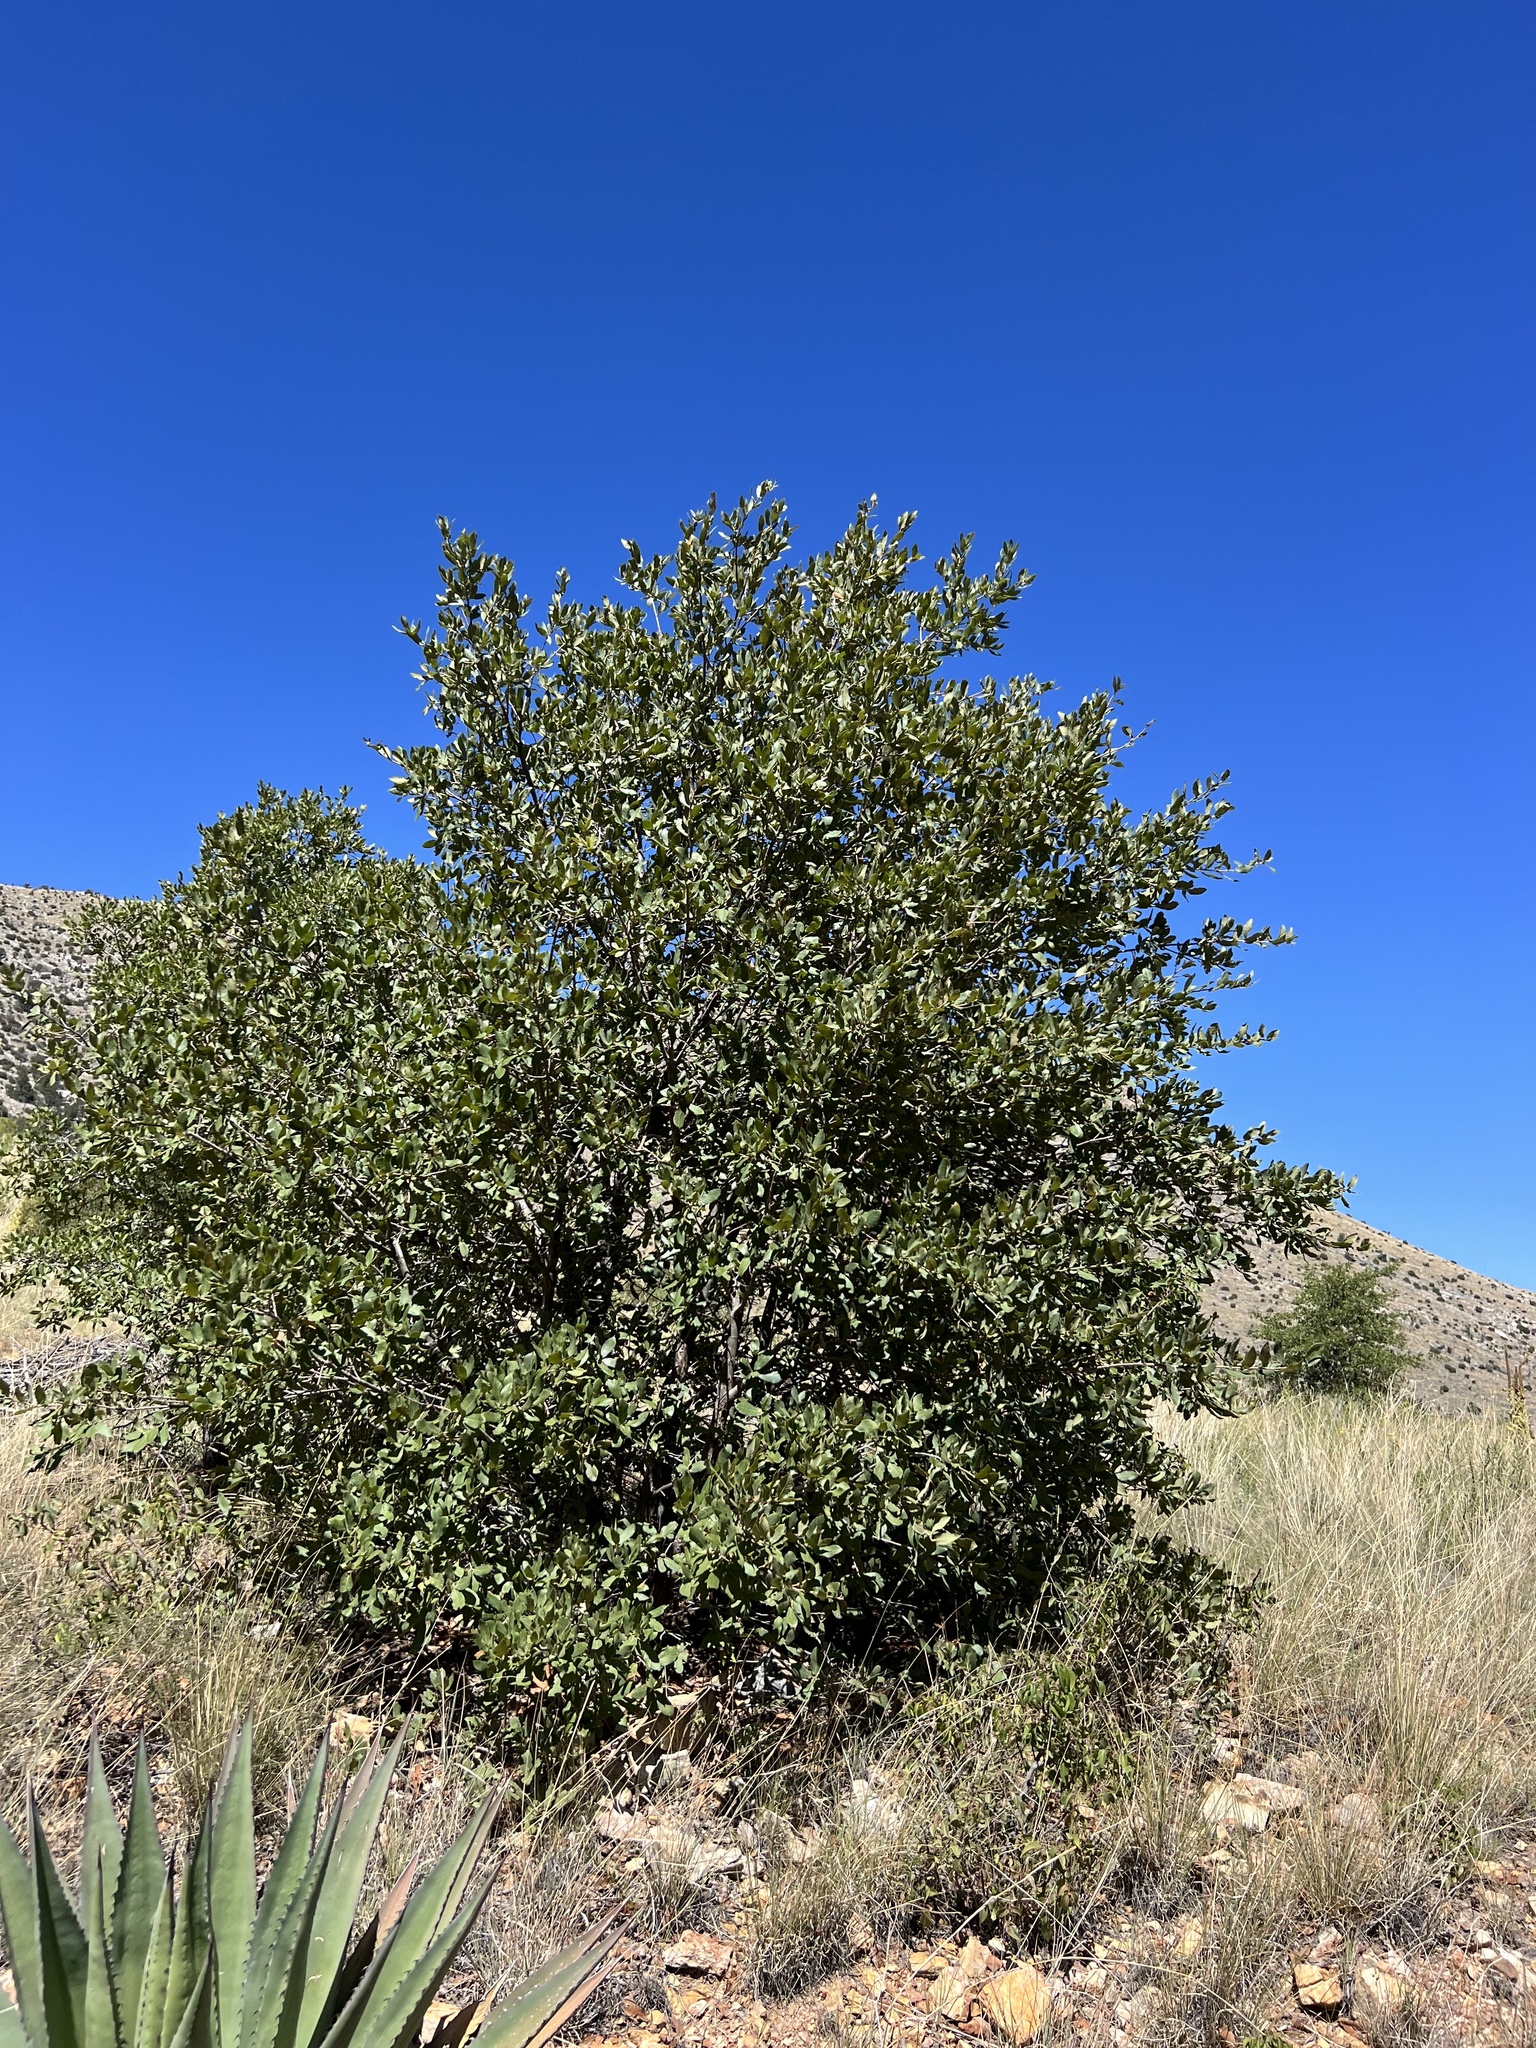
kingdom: Plantae
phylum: Tracheophyta
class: Magnoliopsida
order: Fagales
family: Fagaceae
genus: Quercus
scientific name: Quercus arizonica
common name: Arizona white oak
